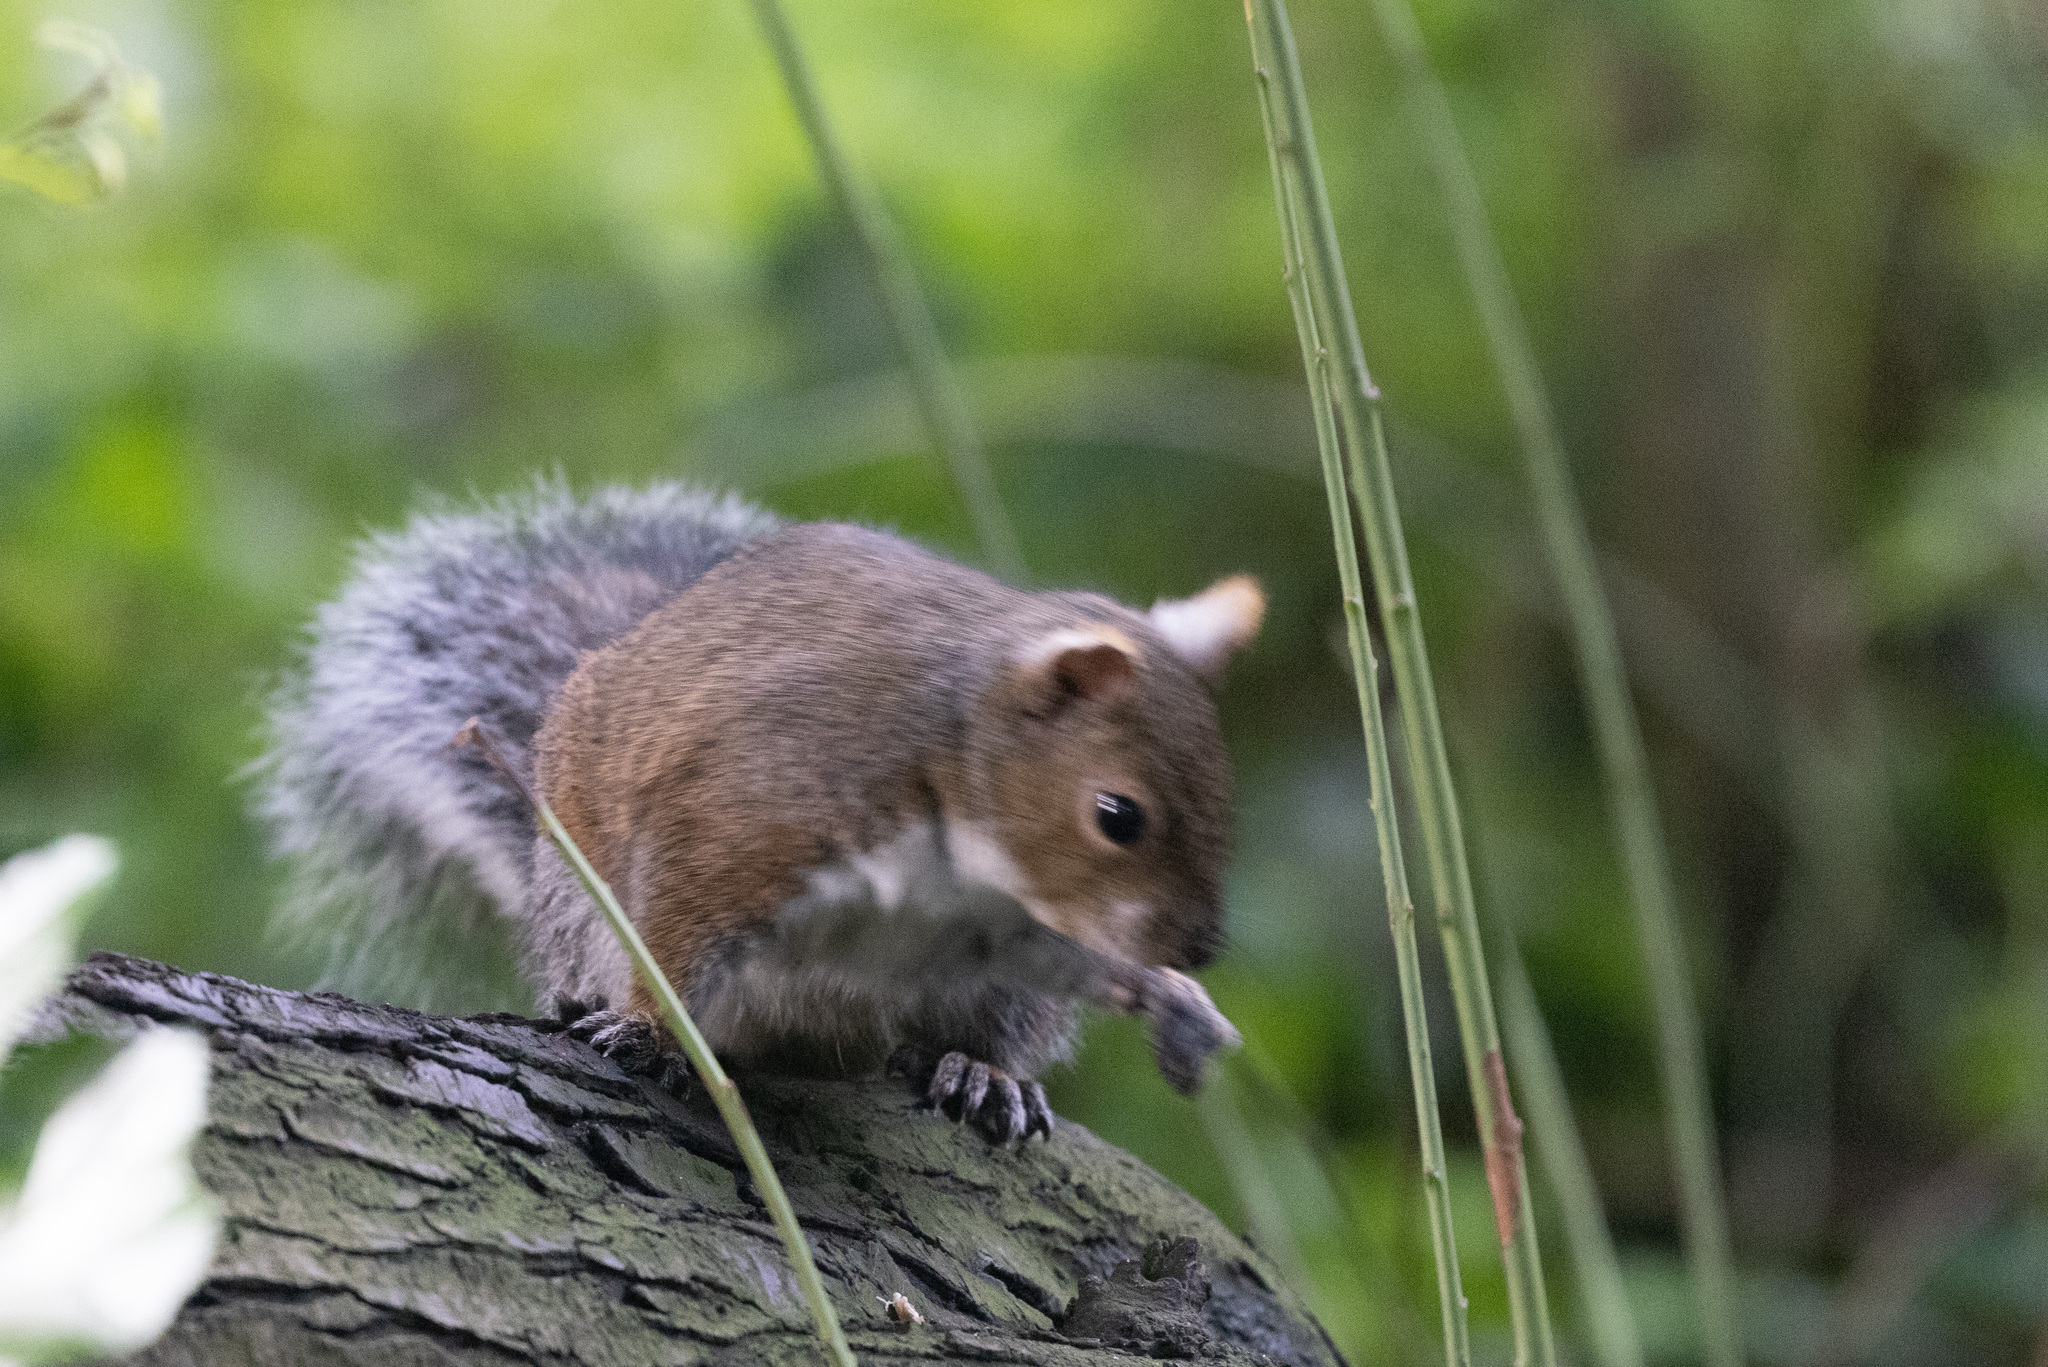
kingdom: Animalia
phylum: Chordata
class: Mammalia
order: Rodentia
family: Sciuridae
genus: Sciurus
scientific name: Sciurus carolinensis
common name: Eastern gray squirrel
